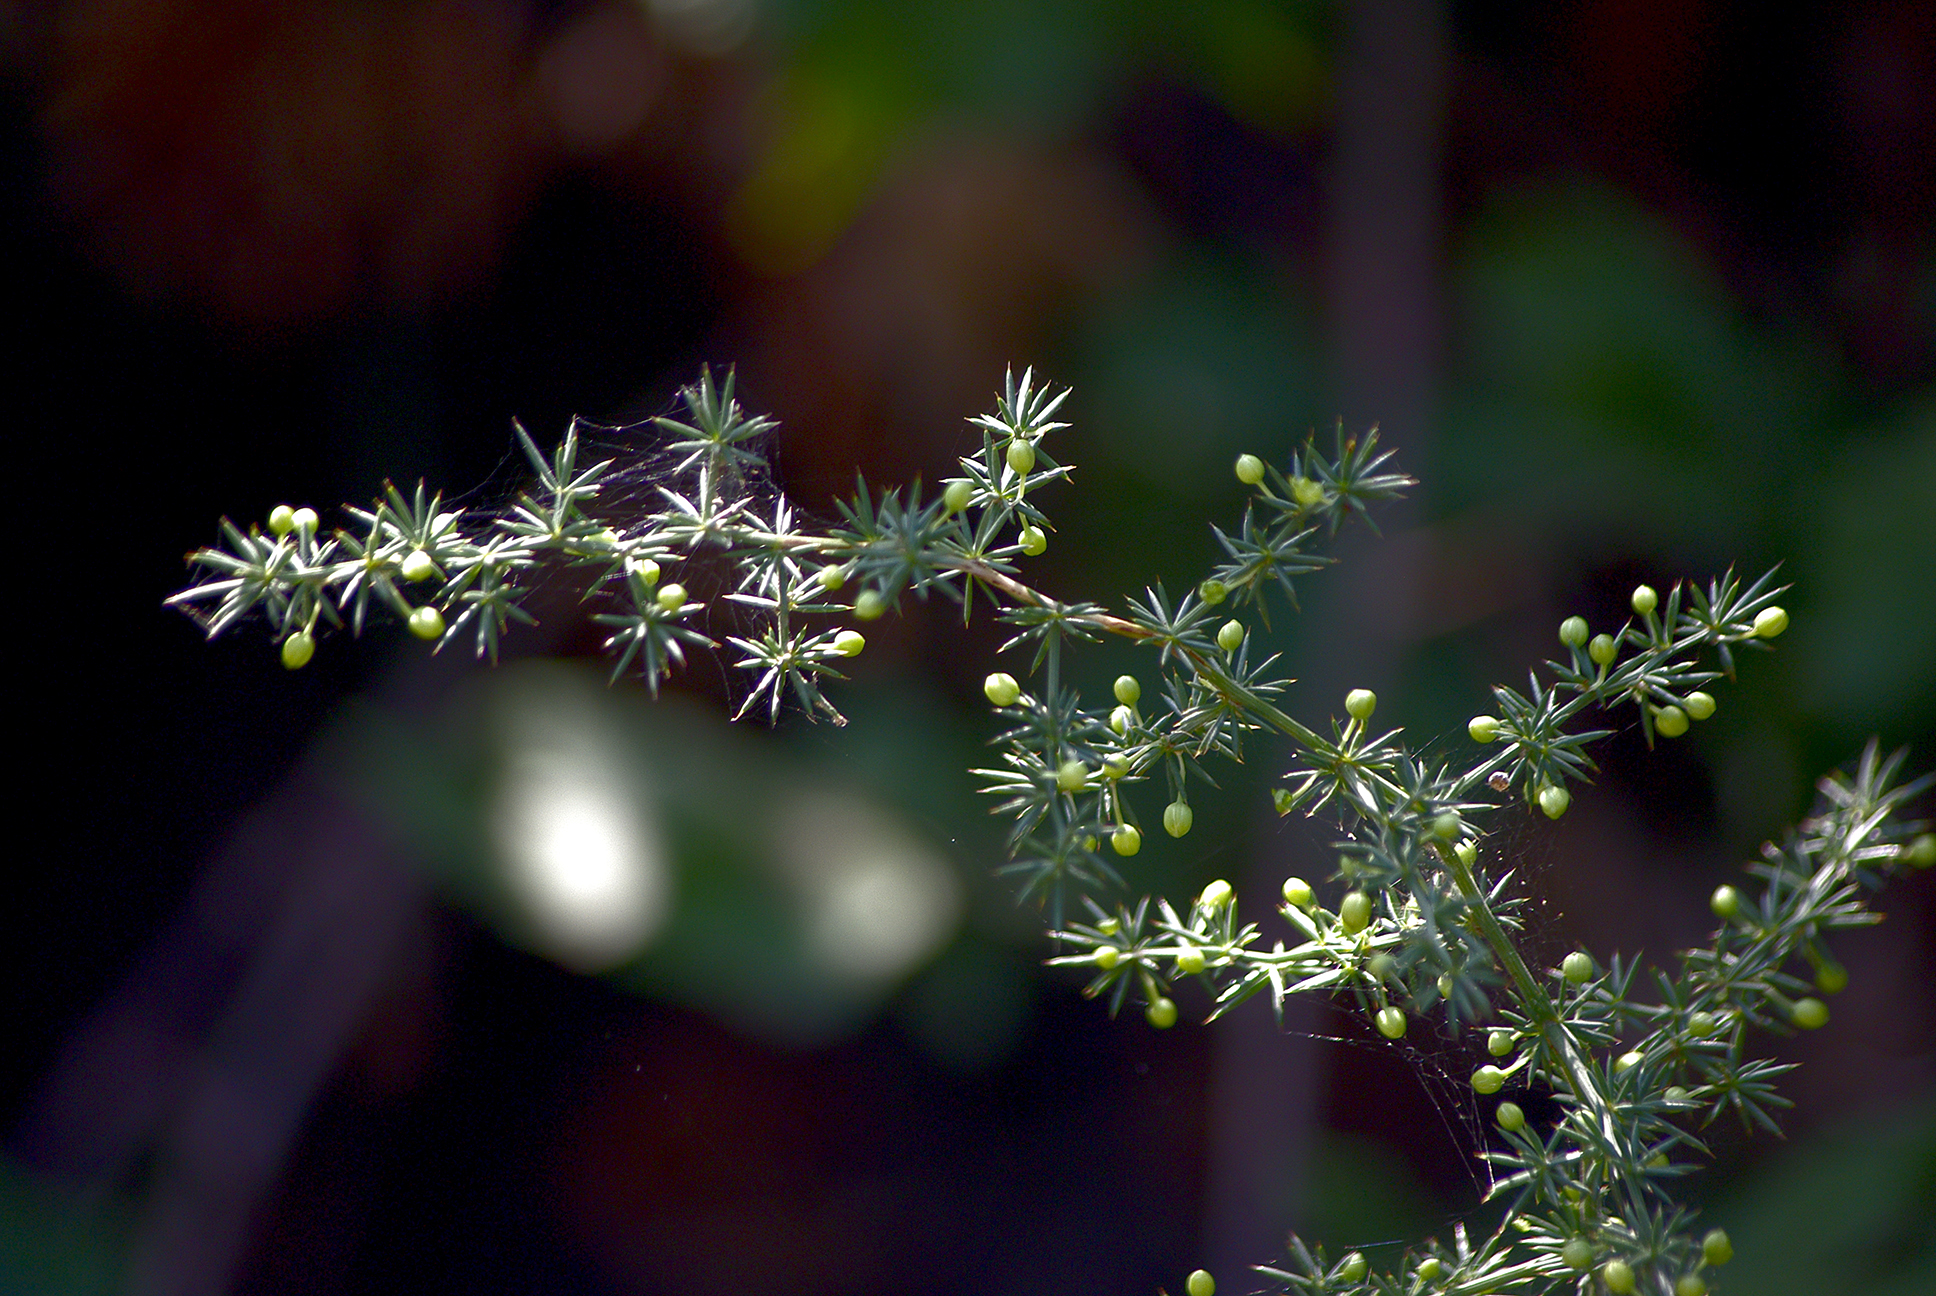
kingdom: Plantae
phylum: Tracheophyta
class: Liliopsida
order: Asparagales
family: Asparagaceae
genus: Asparagus
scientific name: Asparagus acutifolius
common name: Wild asparagus
